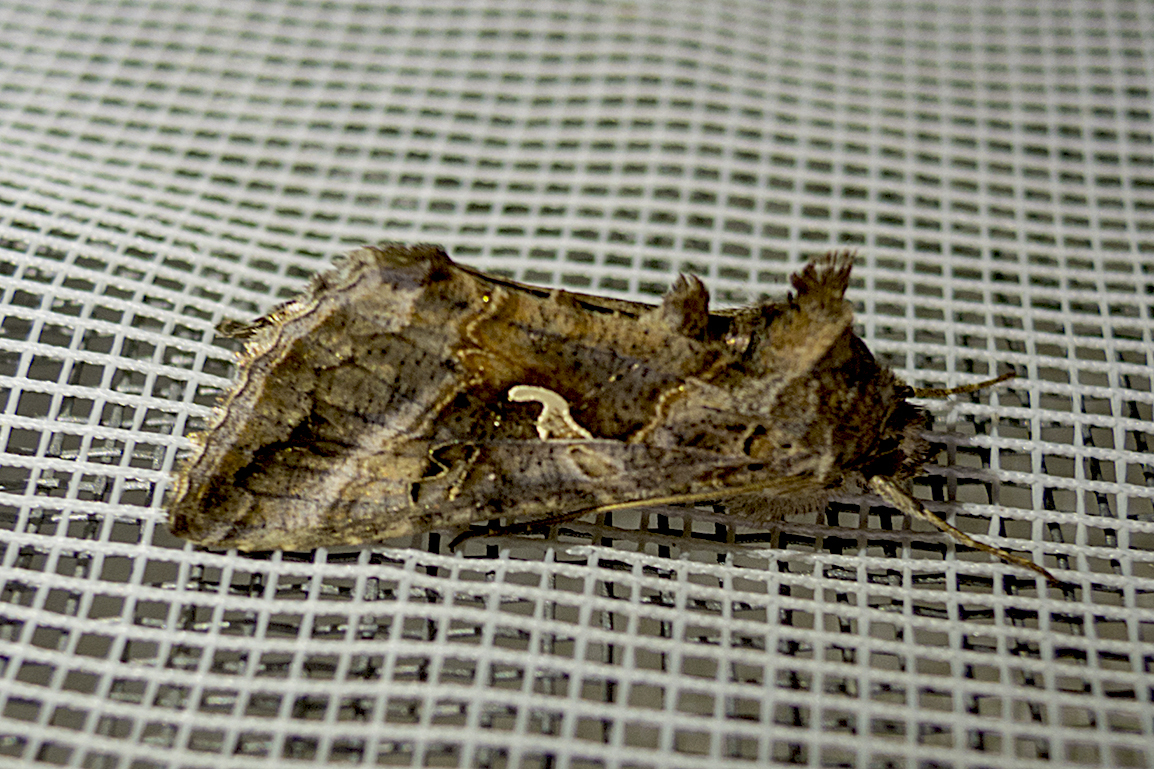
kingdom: Animalia
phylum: Arthropoda
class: Insecta
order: Lepidoptera
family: Noctuidae
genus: Autographa
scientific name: Autographa gamma
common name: Silver y
